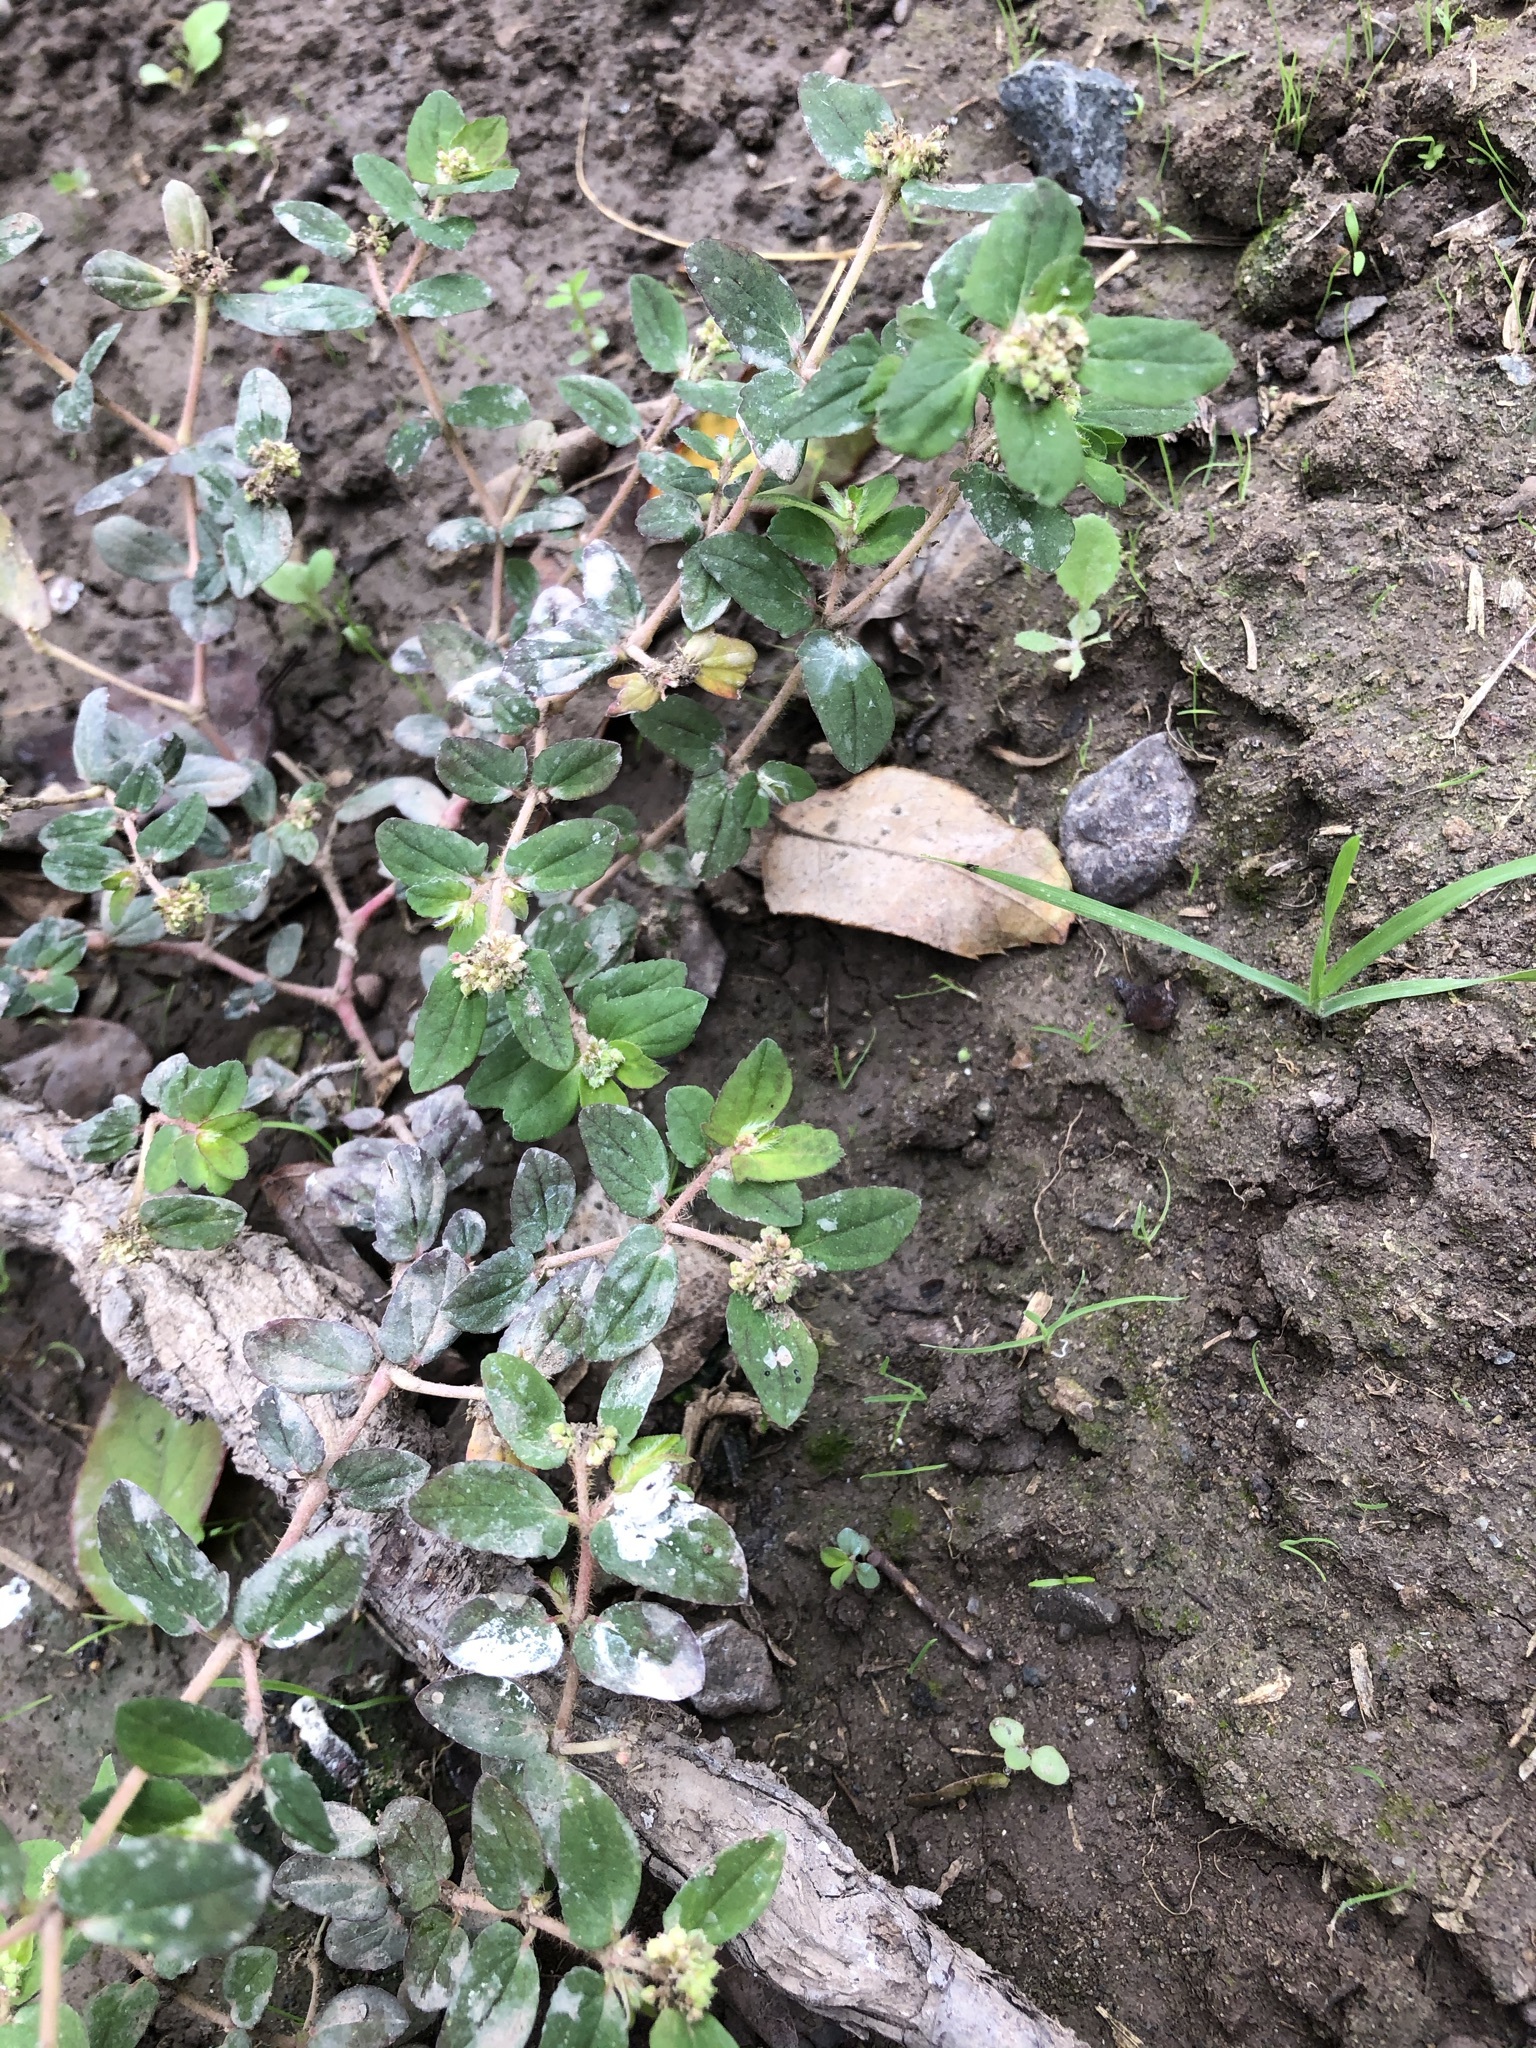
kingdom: Plantae
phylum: Tracheophyta
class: Magnoliopsida
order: Malpighiales
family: Euphorbiaceae
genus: Euphorbia
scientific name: Euphorbia ophthalmica
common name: Florida hammock sandmat
